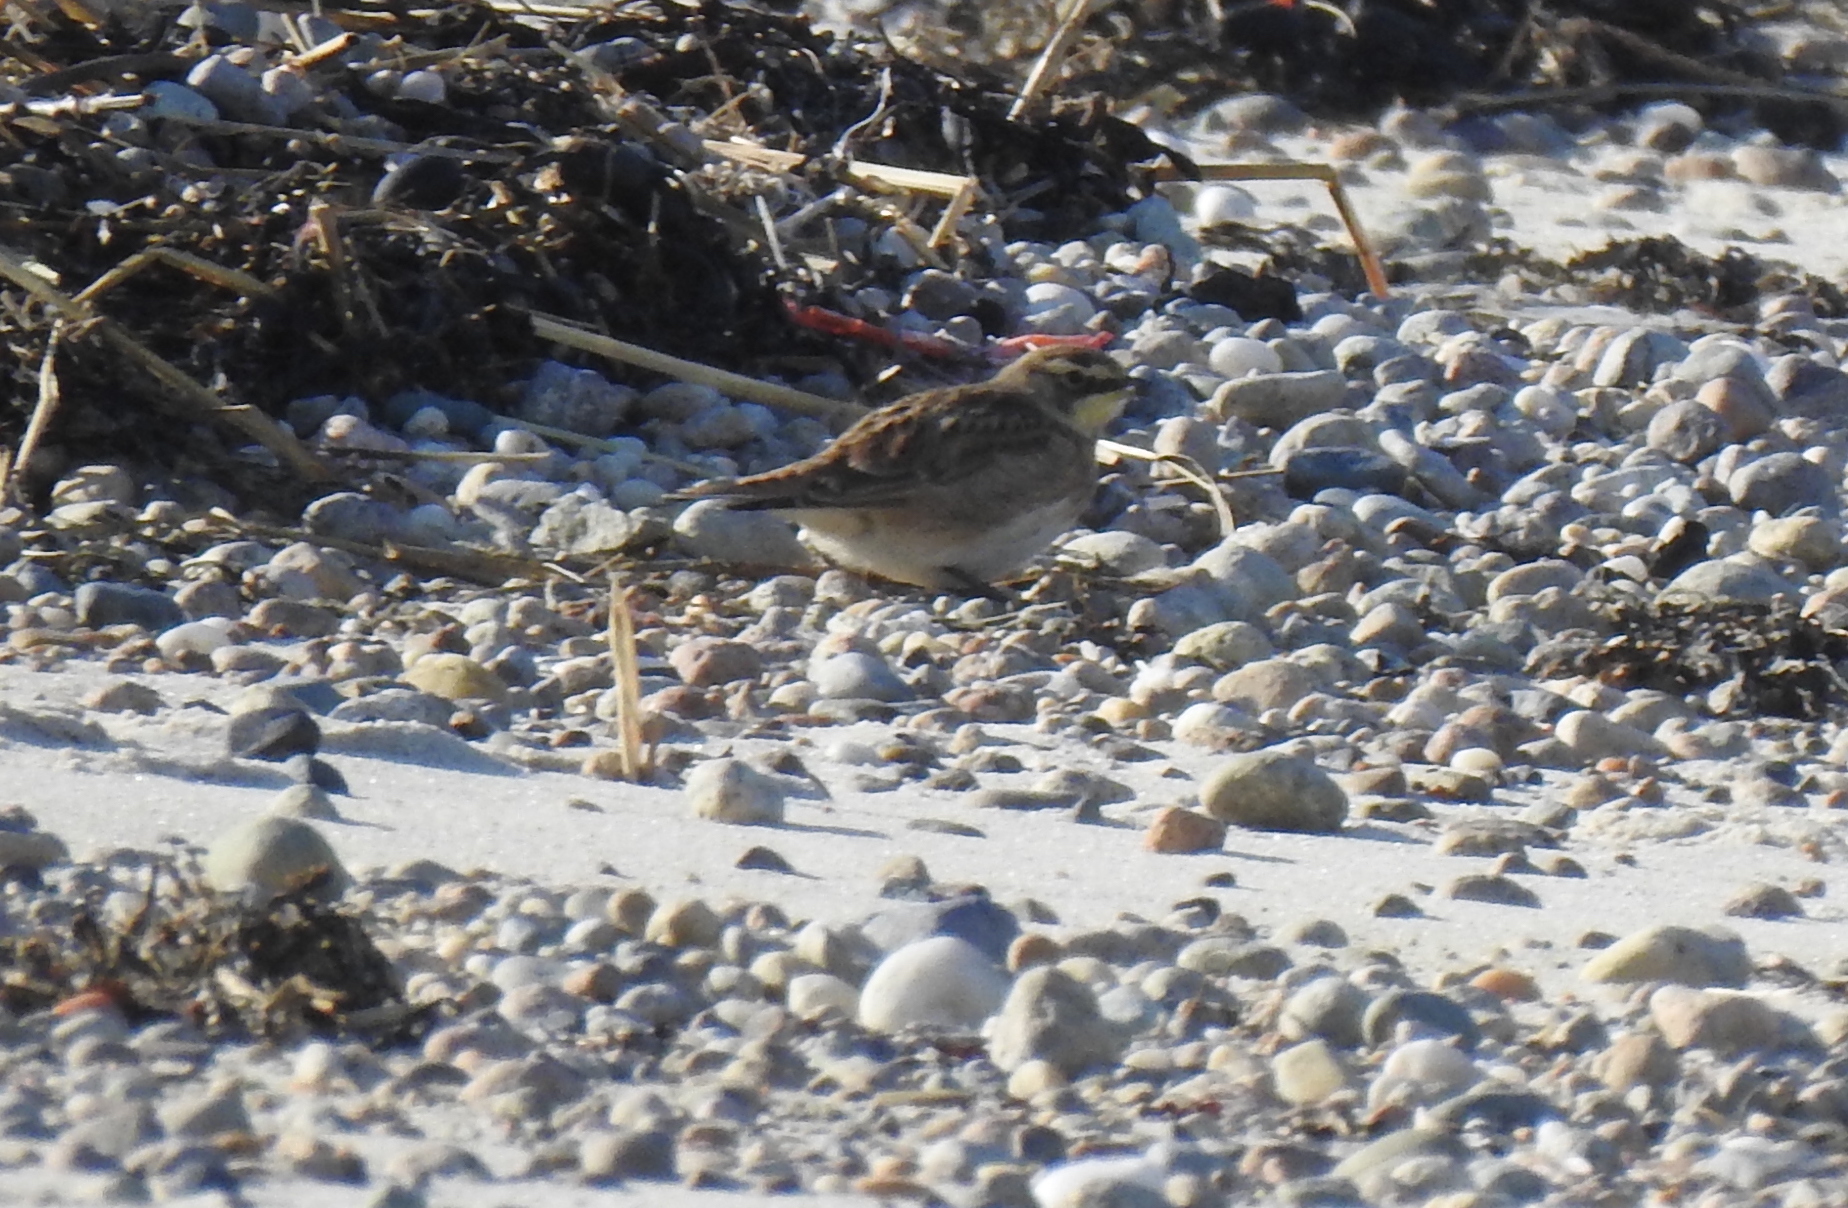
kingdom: Animalia
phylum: Chordata
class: Aves
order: Passeriformes
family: Alaudidae
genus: Eremophila
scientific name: Eremophila alpestris
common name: Horned lark
